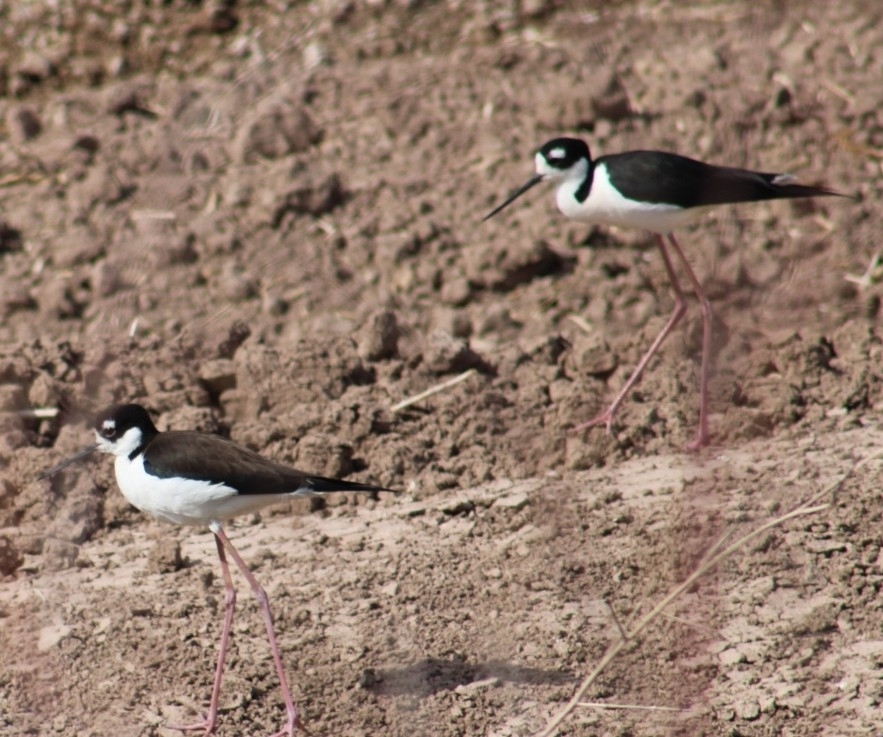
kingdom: Animalia
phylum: Chordata
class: Aves
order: Charadriiformes
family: Recurvirostridae
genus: Himantopus
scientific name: Himantopus mexicanus
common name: Black-necked stilt
